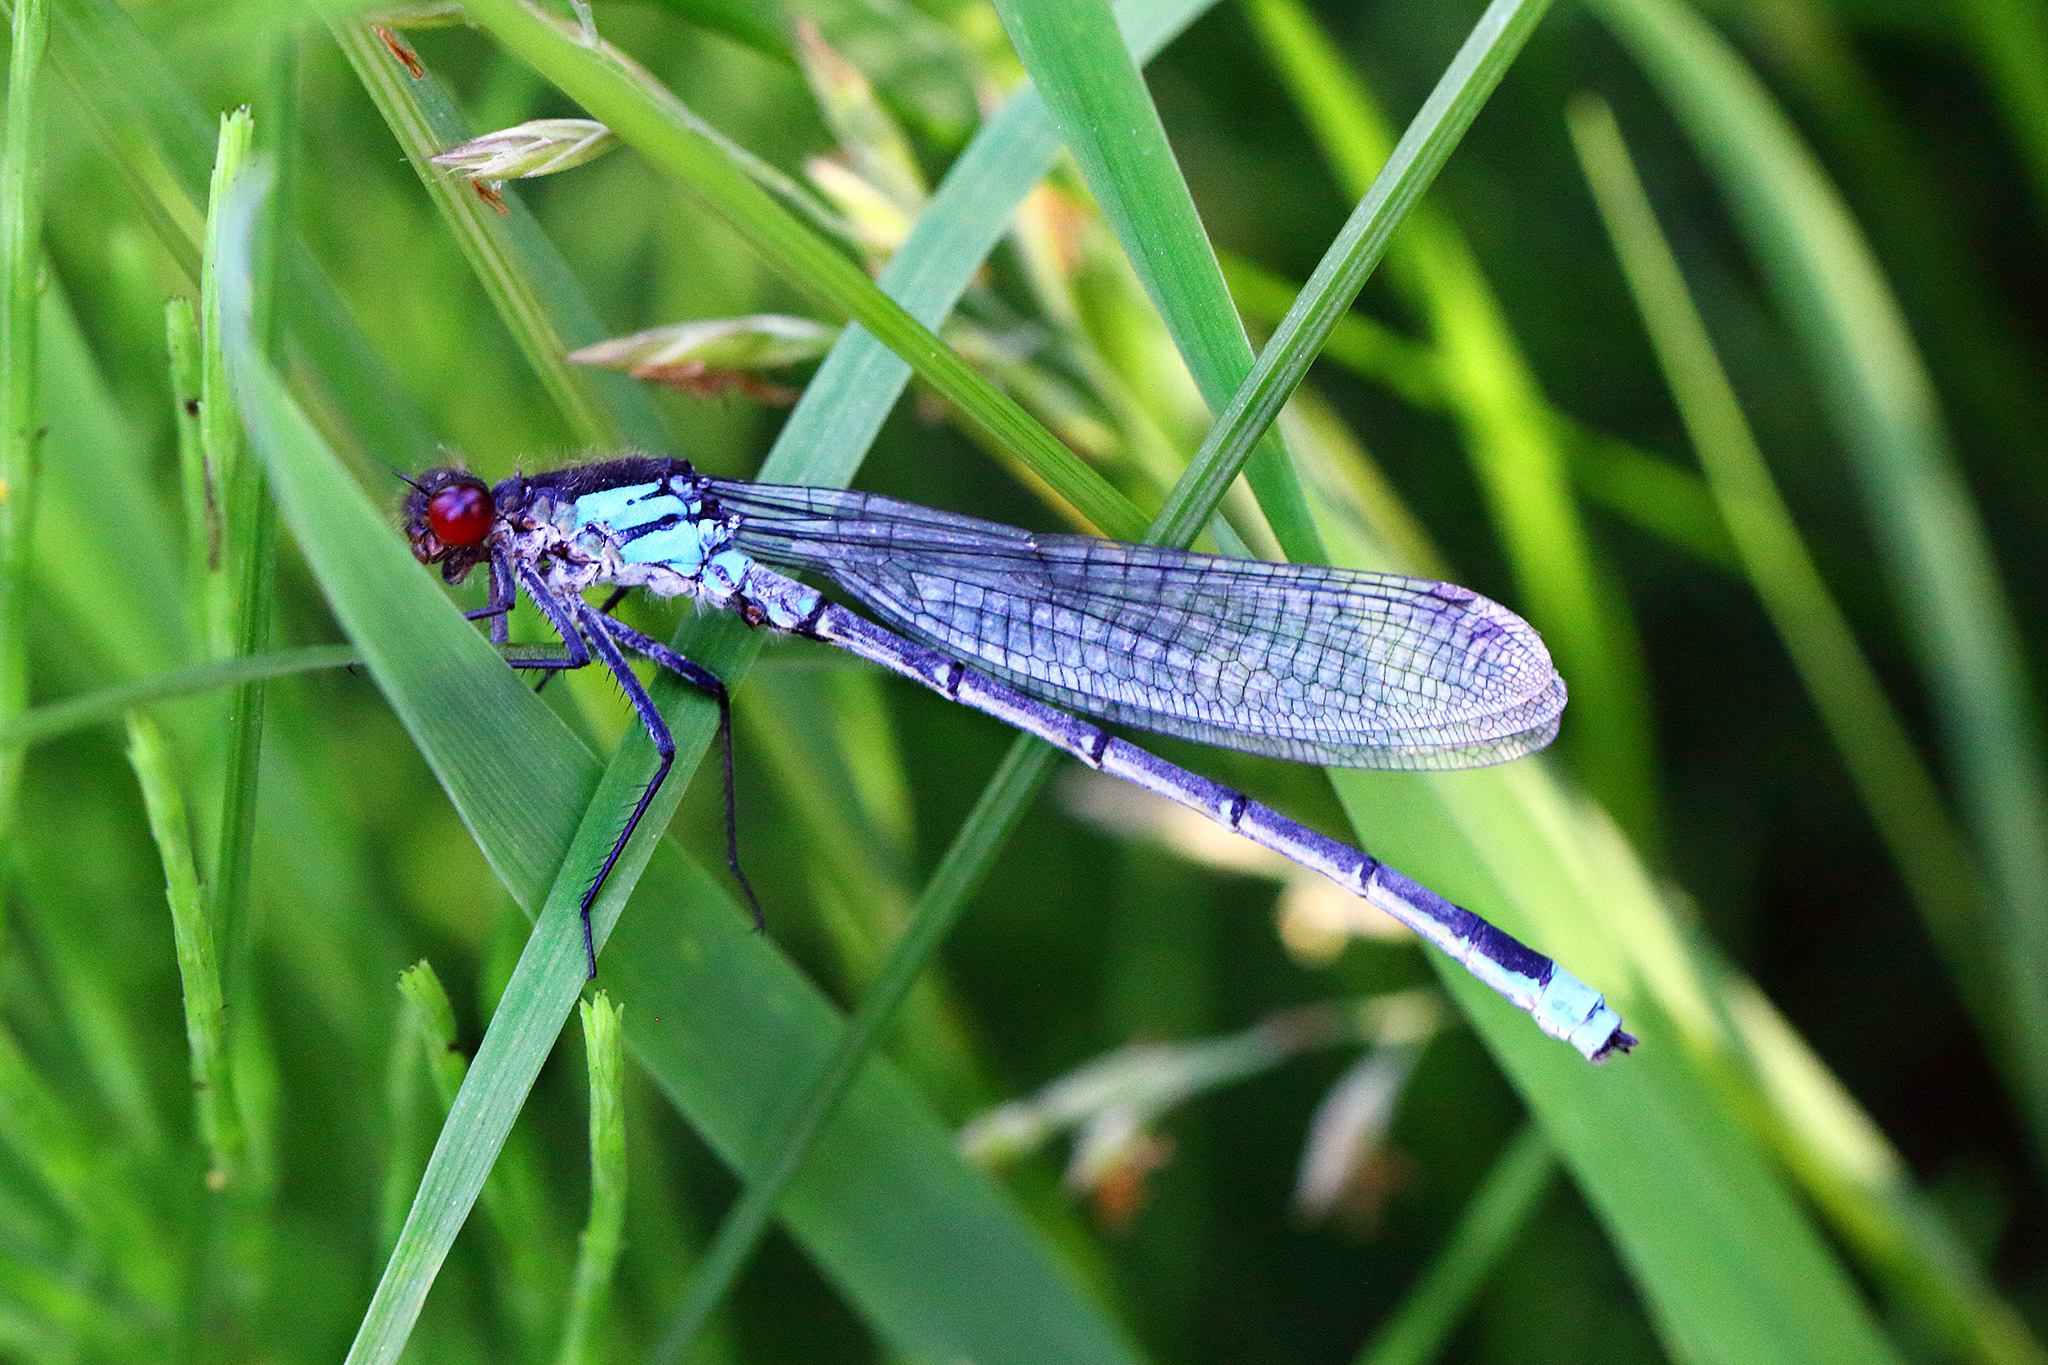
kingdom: Animalia
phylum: Arthropoda
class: Insecta
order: Odonata
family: Coenagrionidae
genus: Erythromma
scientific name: Erythromma najas
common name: Red-eyed damselfly
